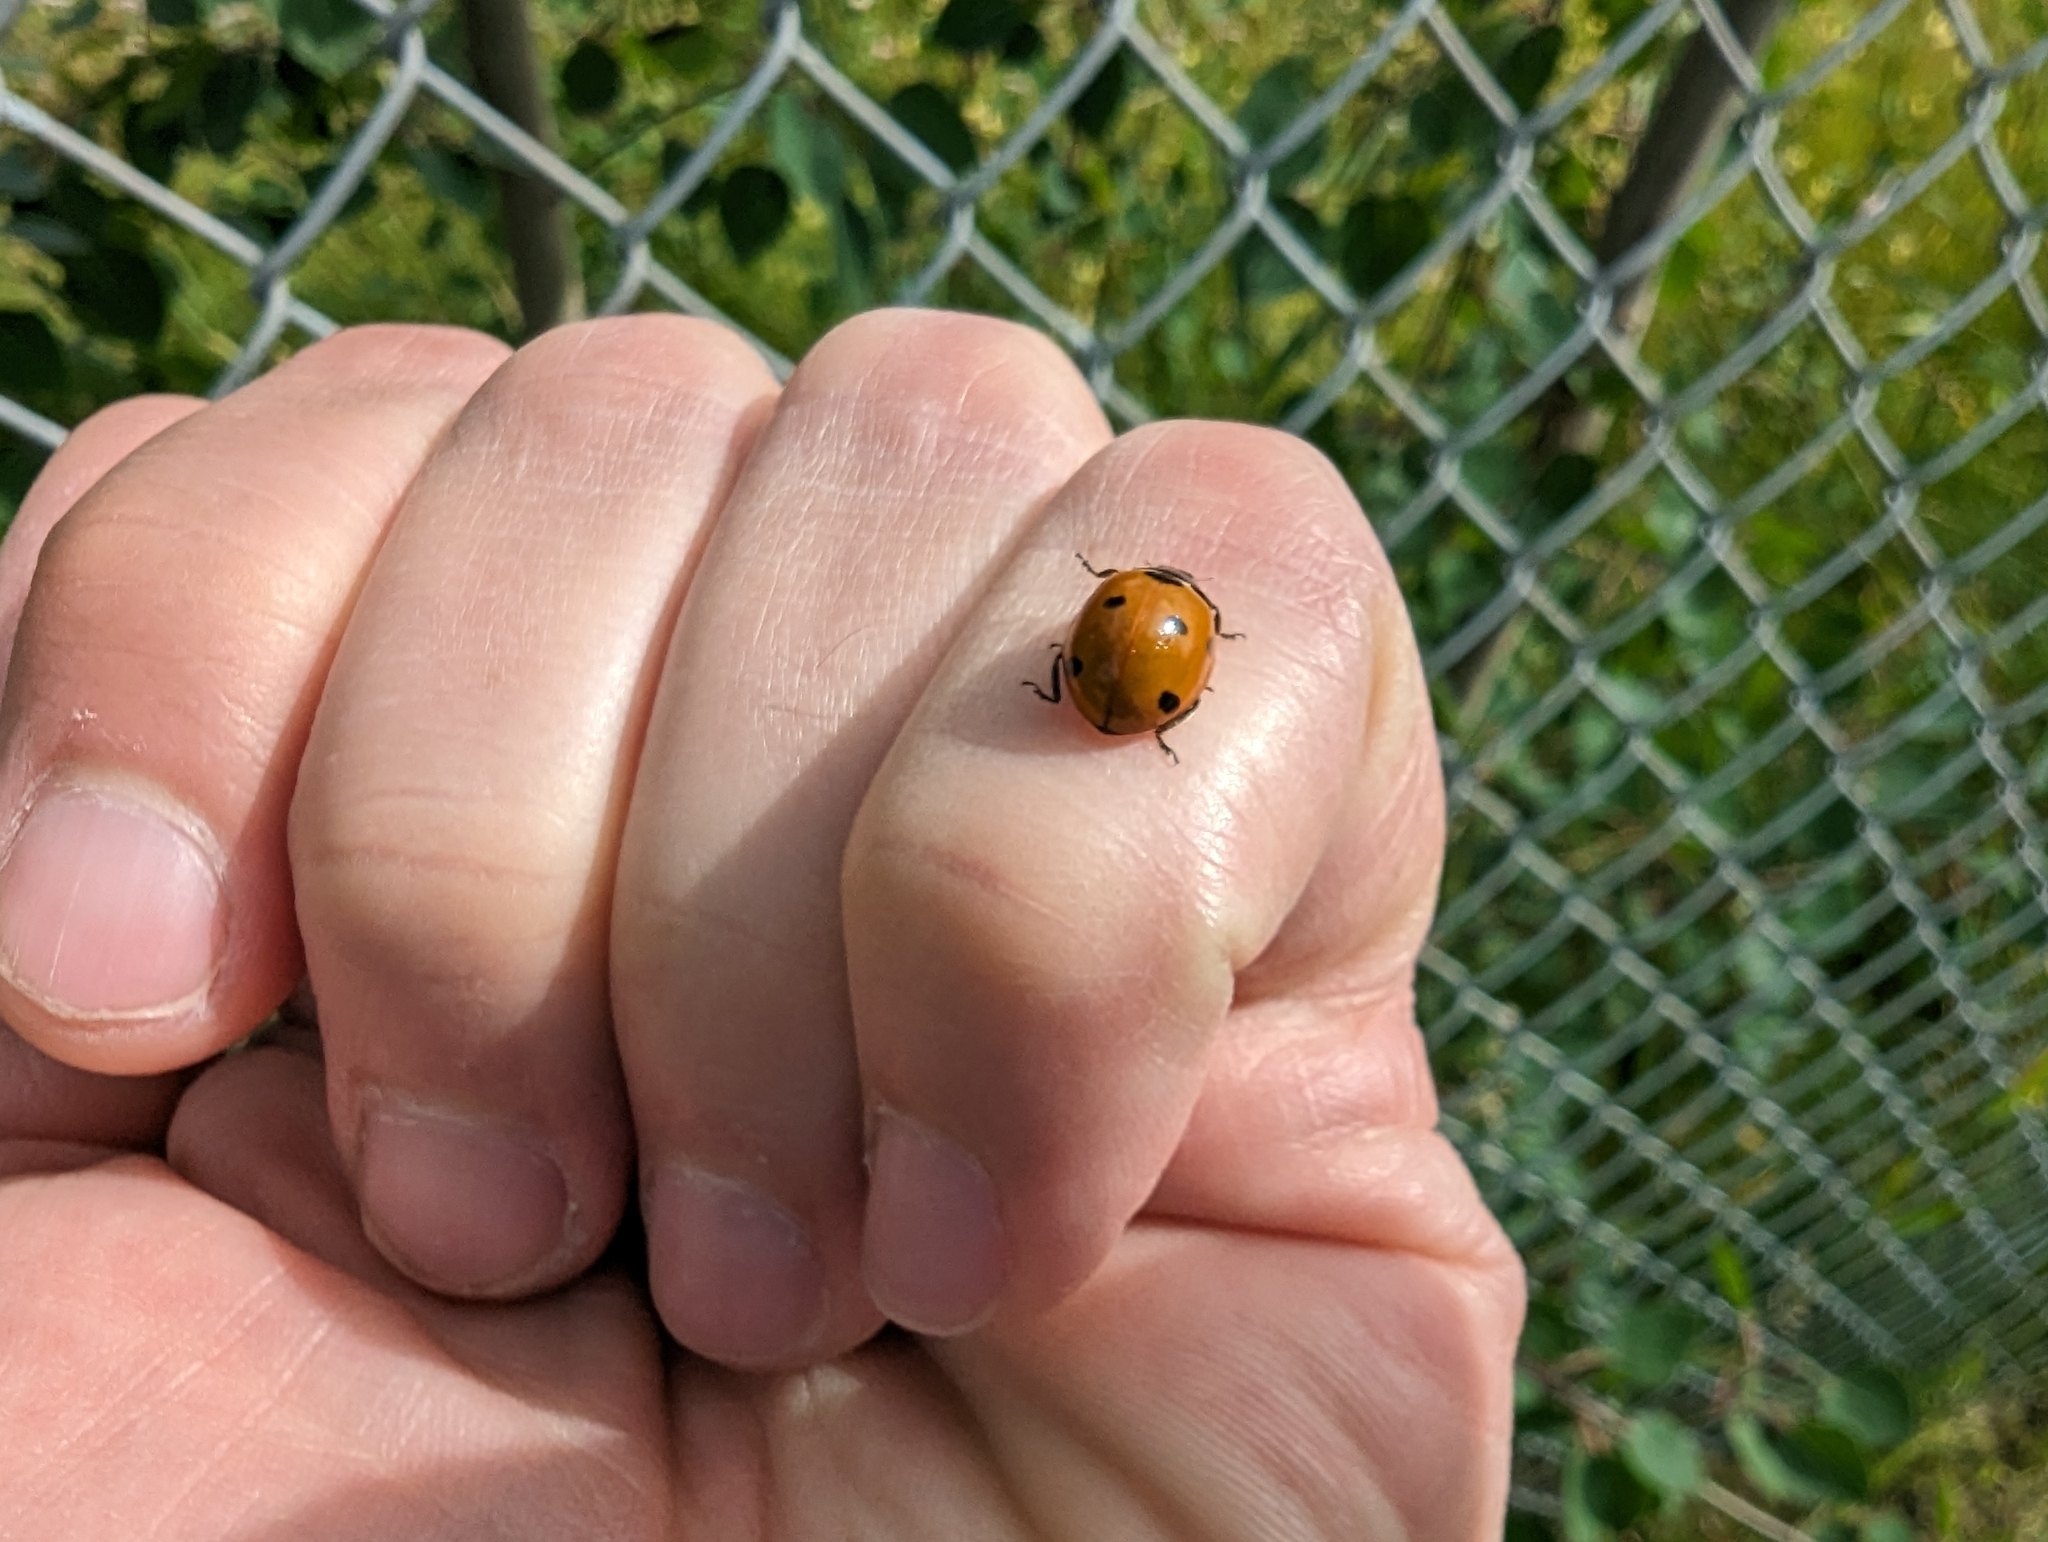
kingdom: Animalia
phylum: Arthropoda
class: Insecta
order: Coleoptera
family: Coccinellidae
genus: Coccinella
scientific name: Coccinella septempunctata
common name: Sevenspotted lady beetle
